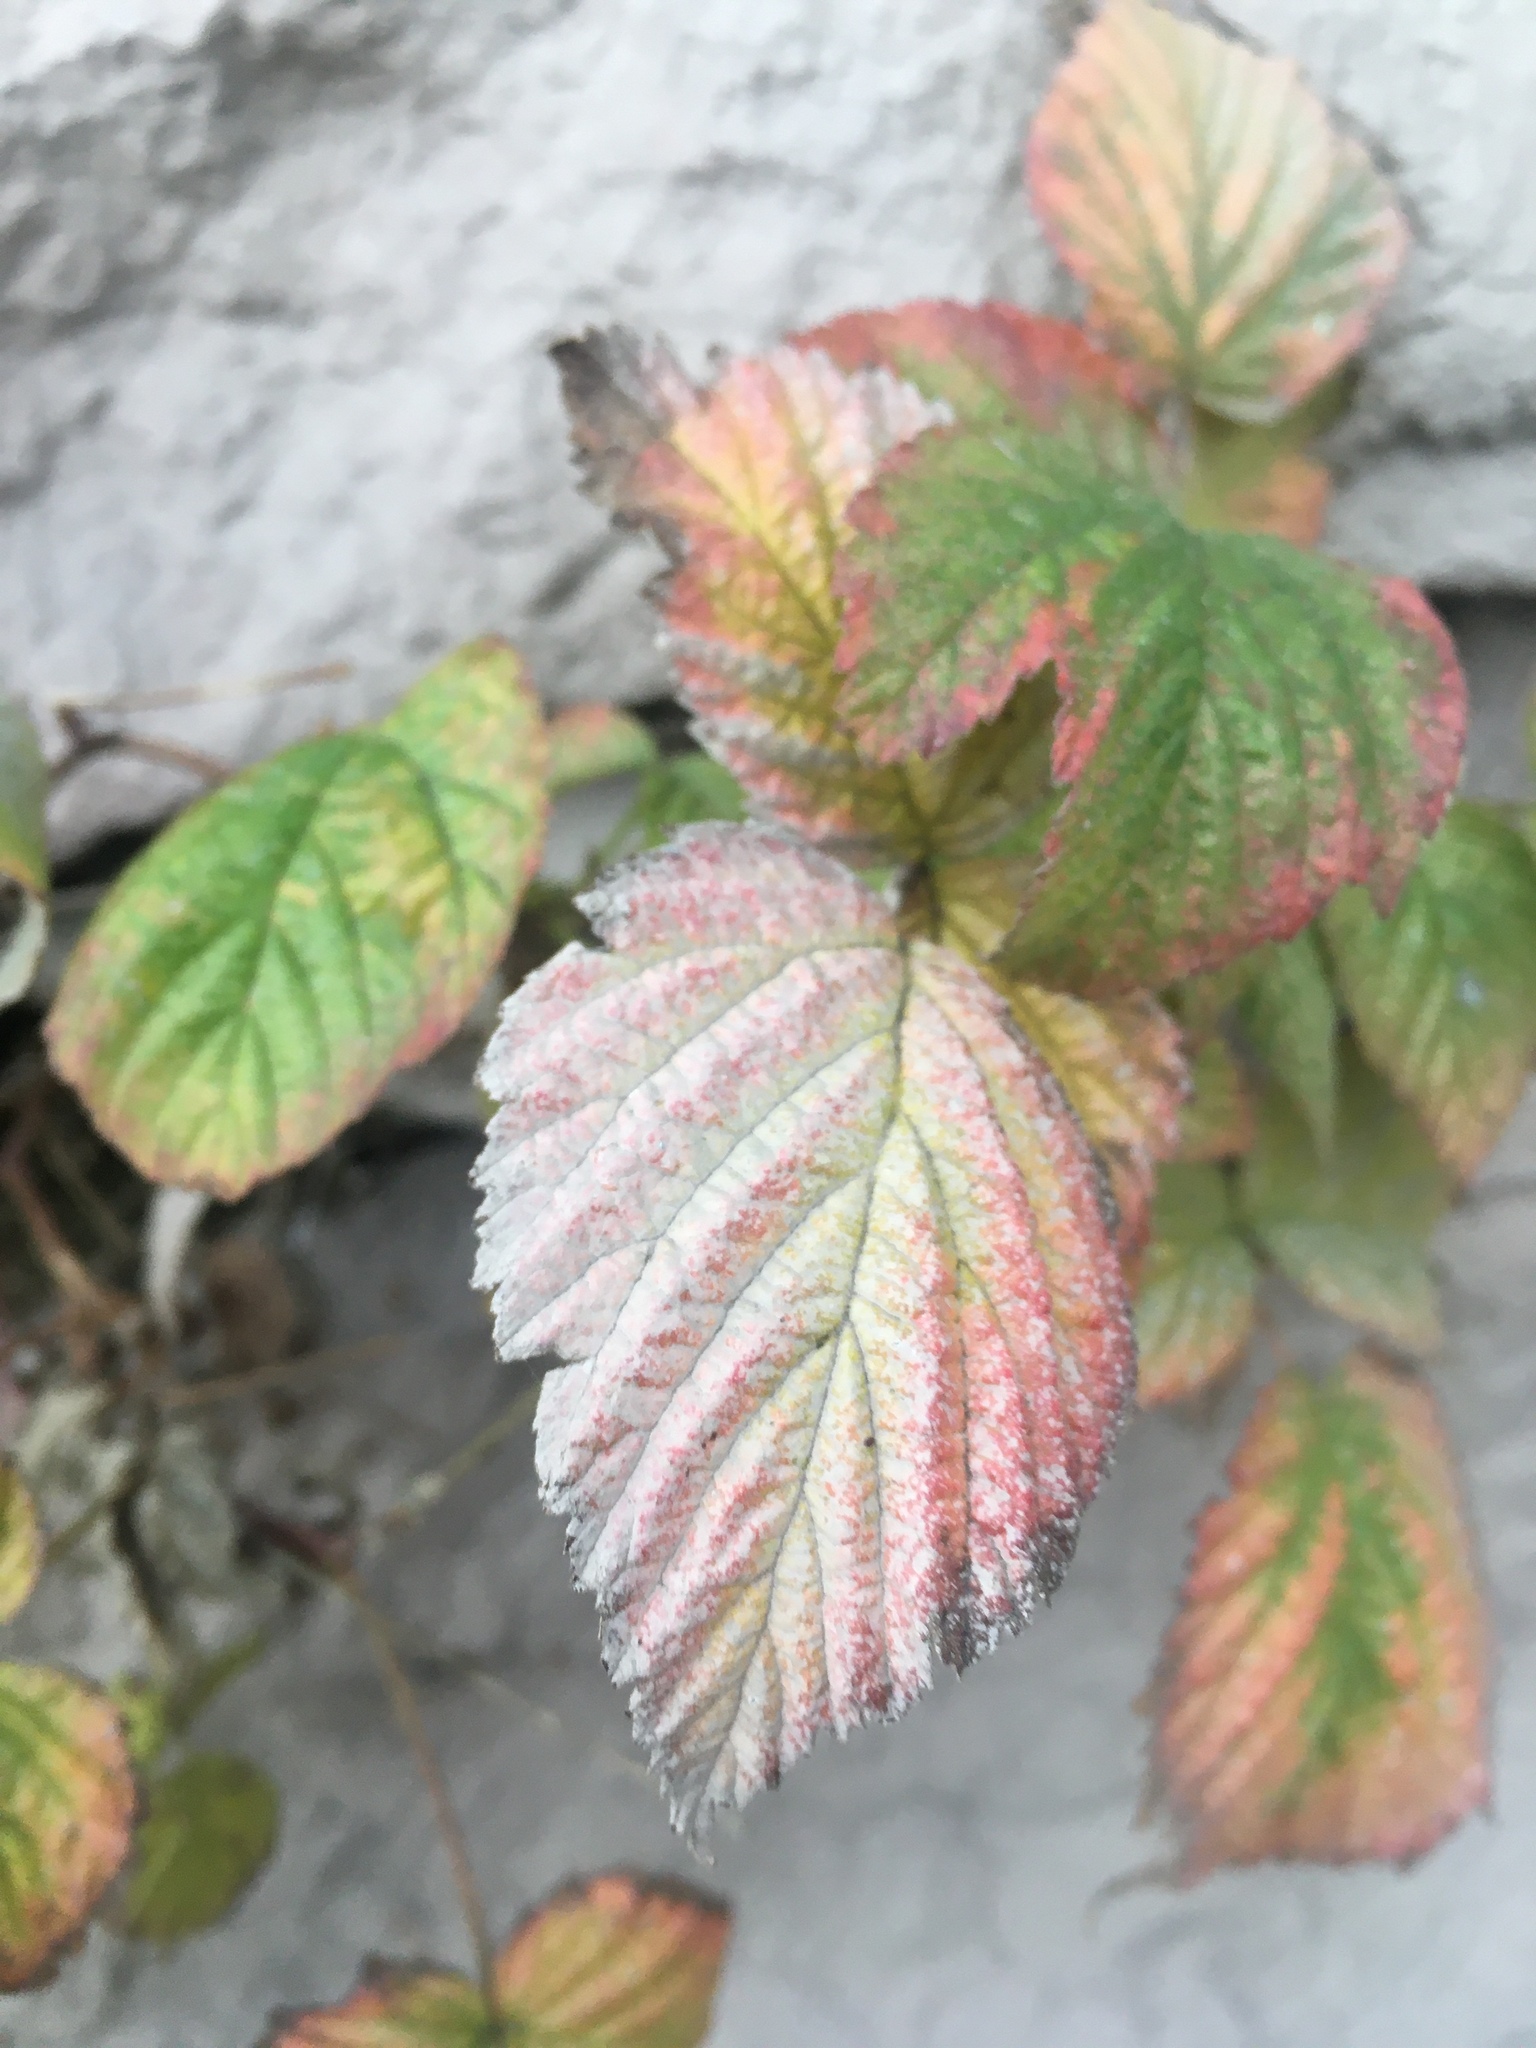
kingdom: Plantae
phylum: Tracheophyta
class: Magnoliopsida
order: Rosales
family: Rosaceae
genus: Rubus
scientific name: Rubus idaeus
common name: Raspberry
